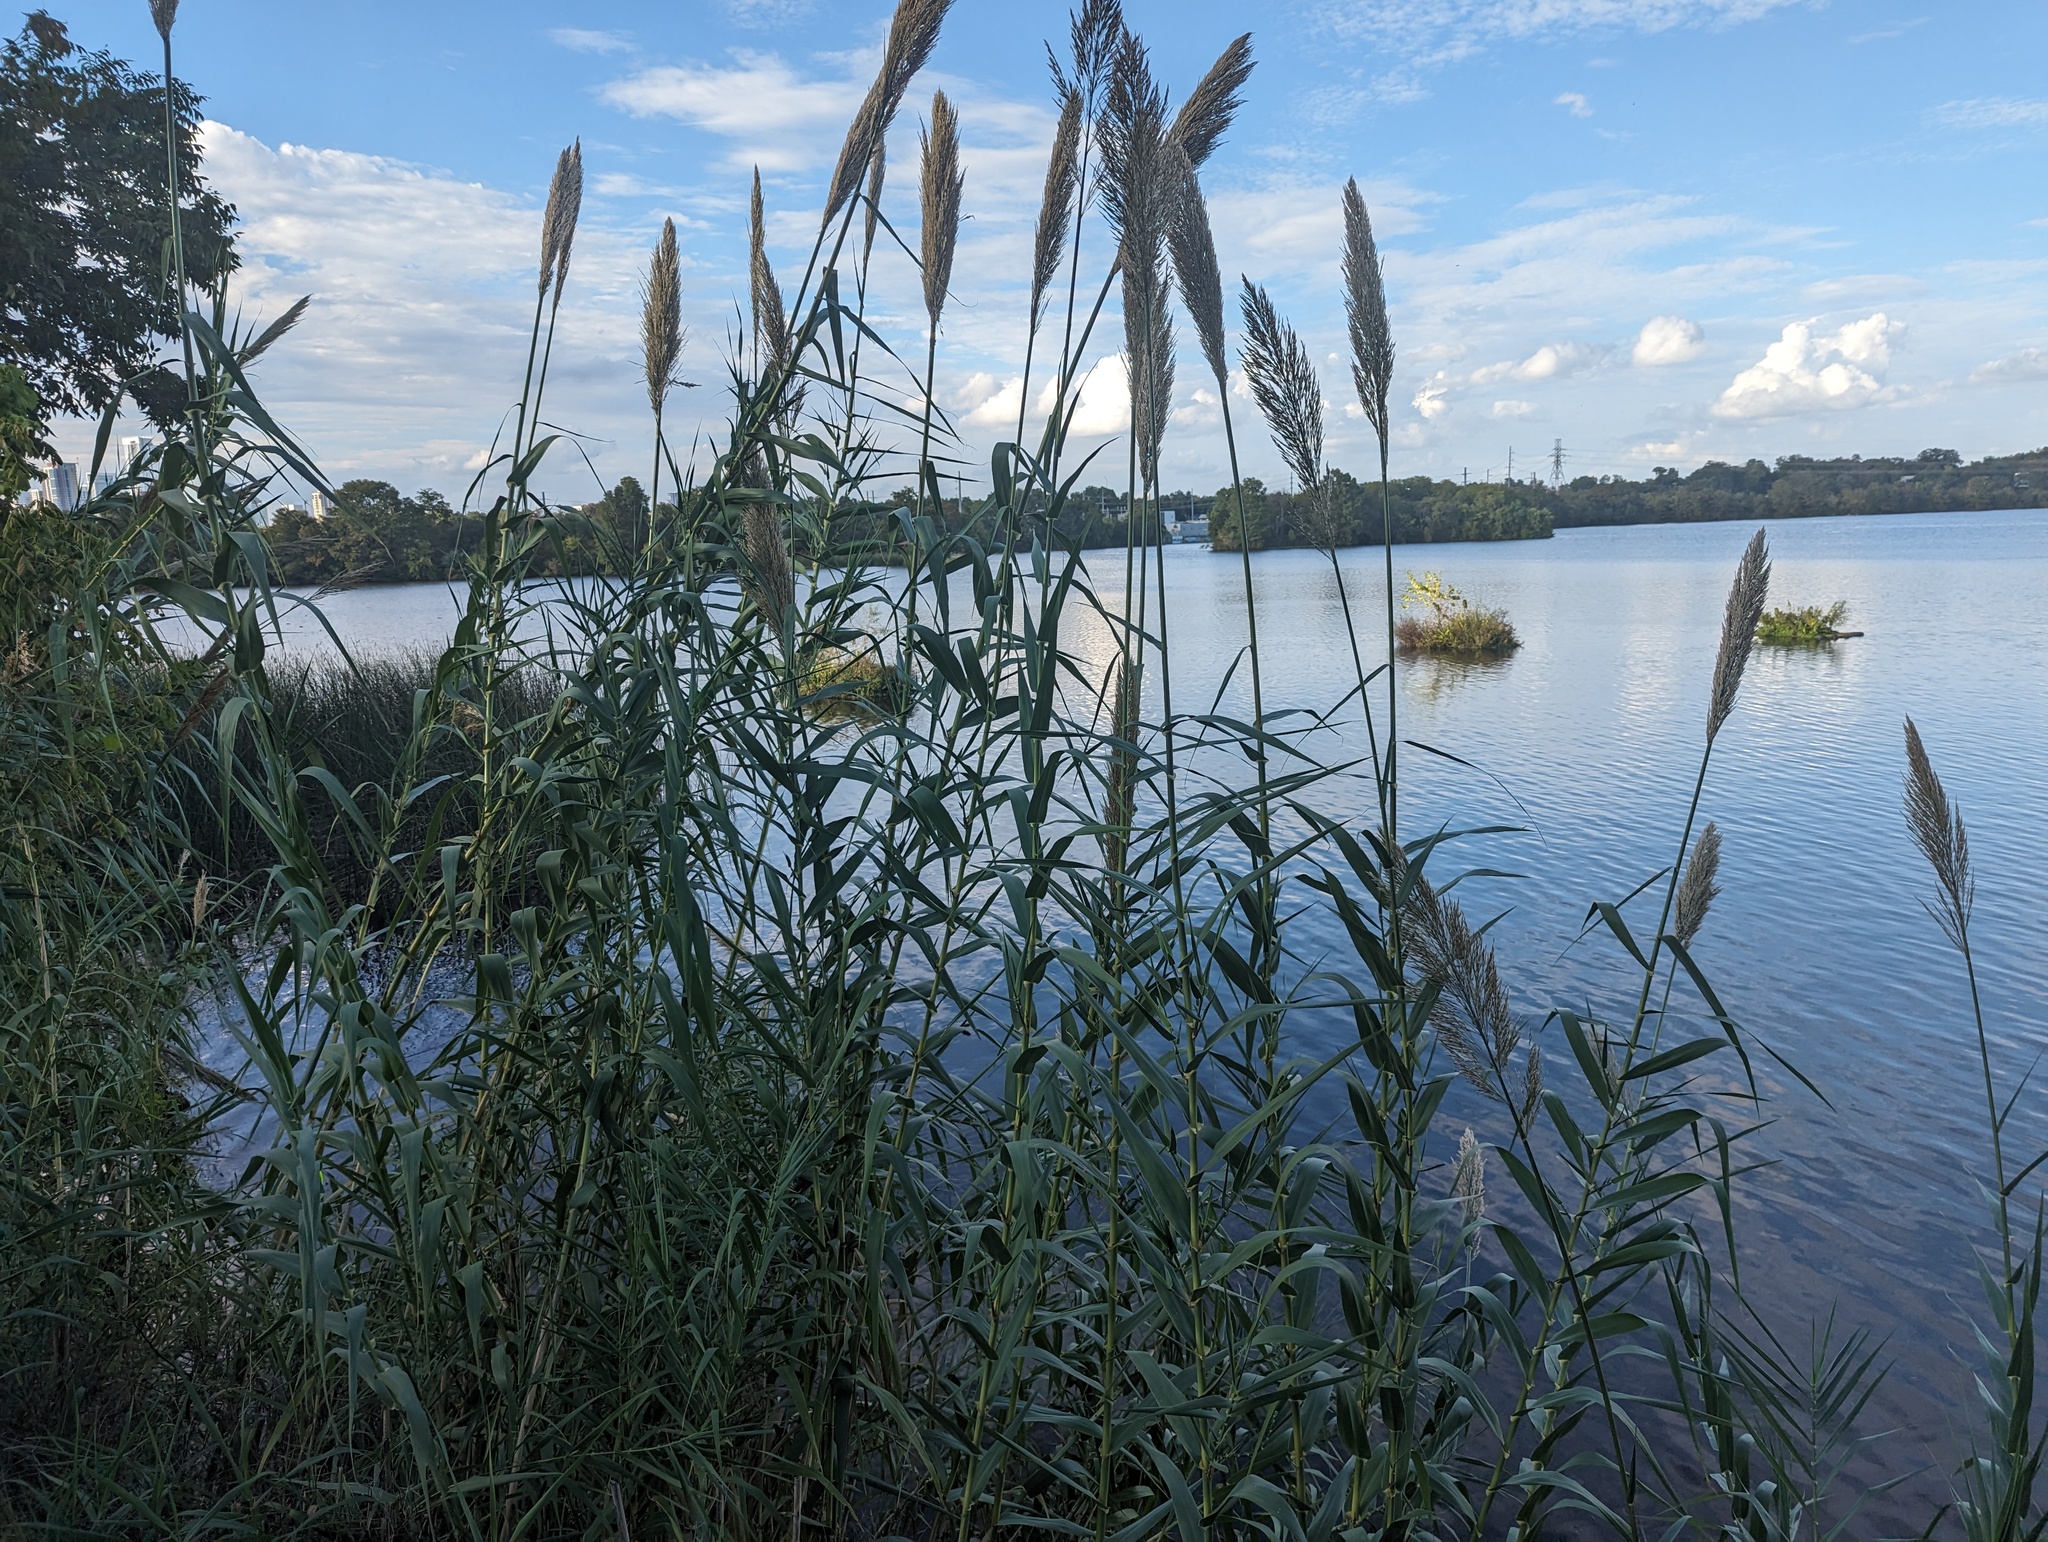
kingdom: Plantae
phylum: Tracheophyta
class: Liliopsida
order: Poales
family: Poaceae
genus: Arundo
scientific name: Arundo donax
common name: Giant reed
